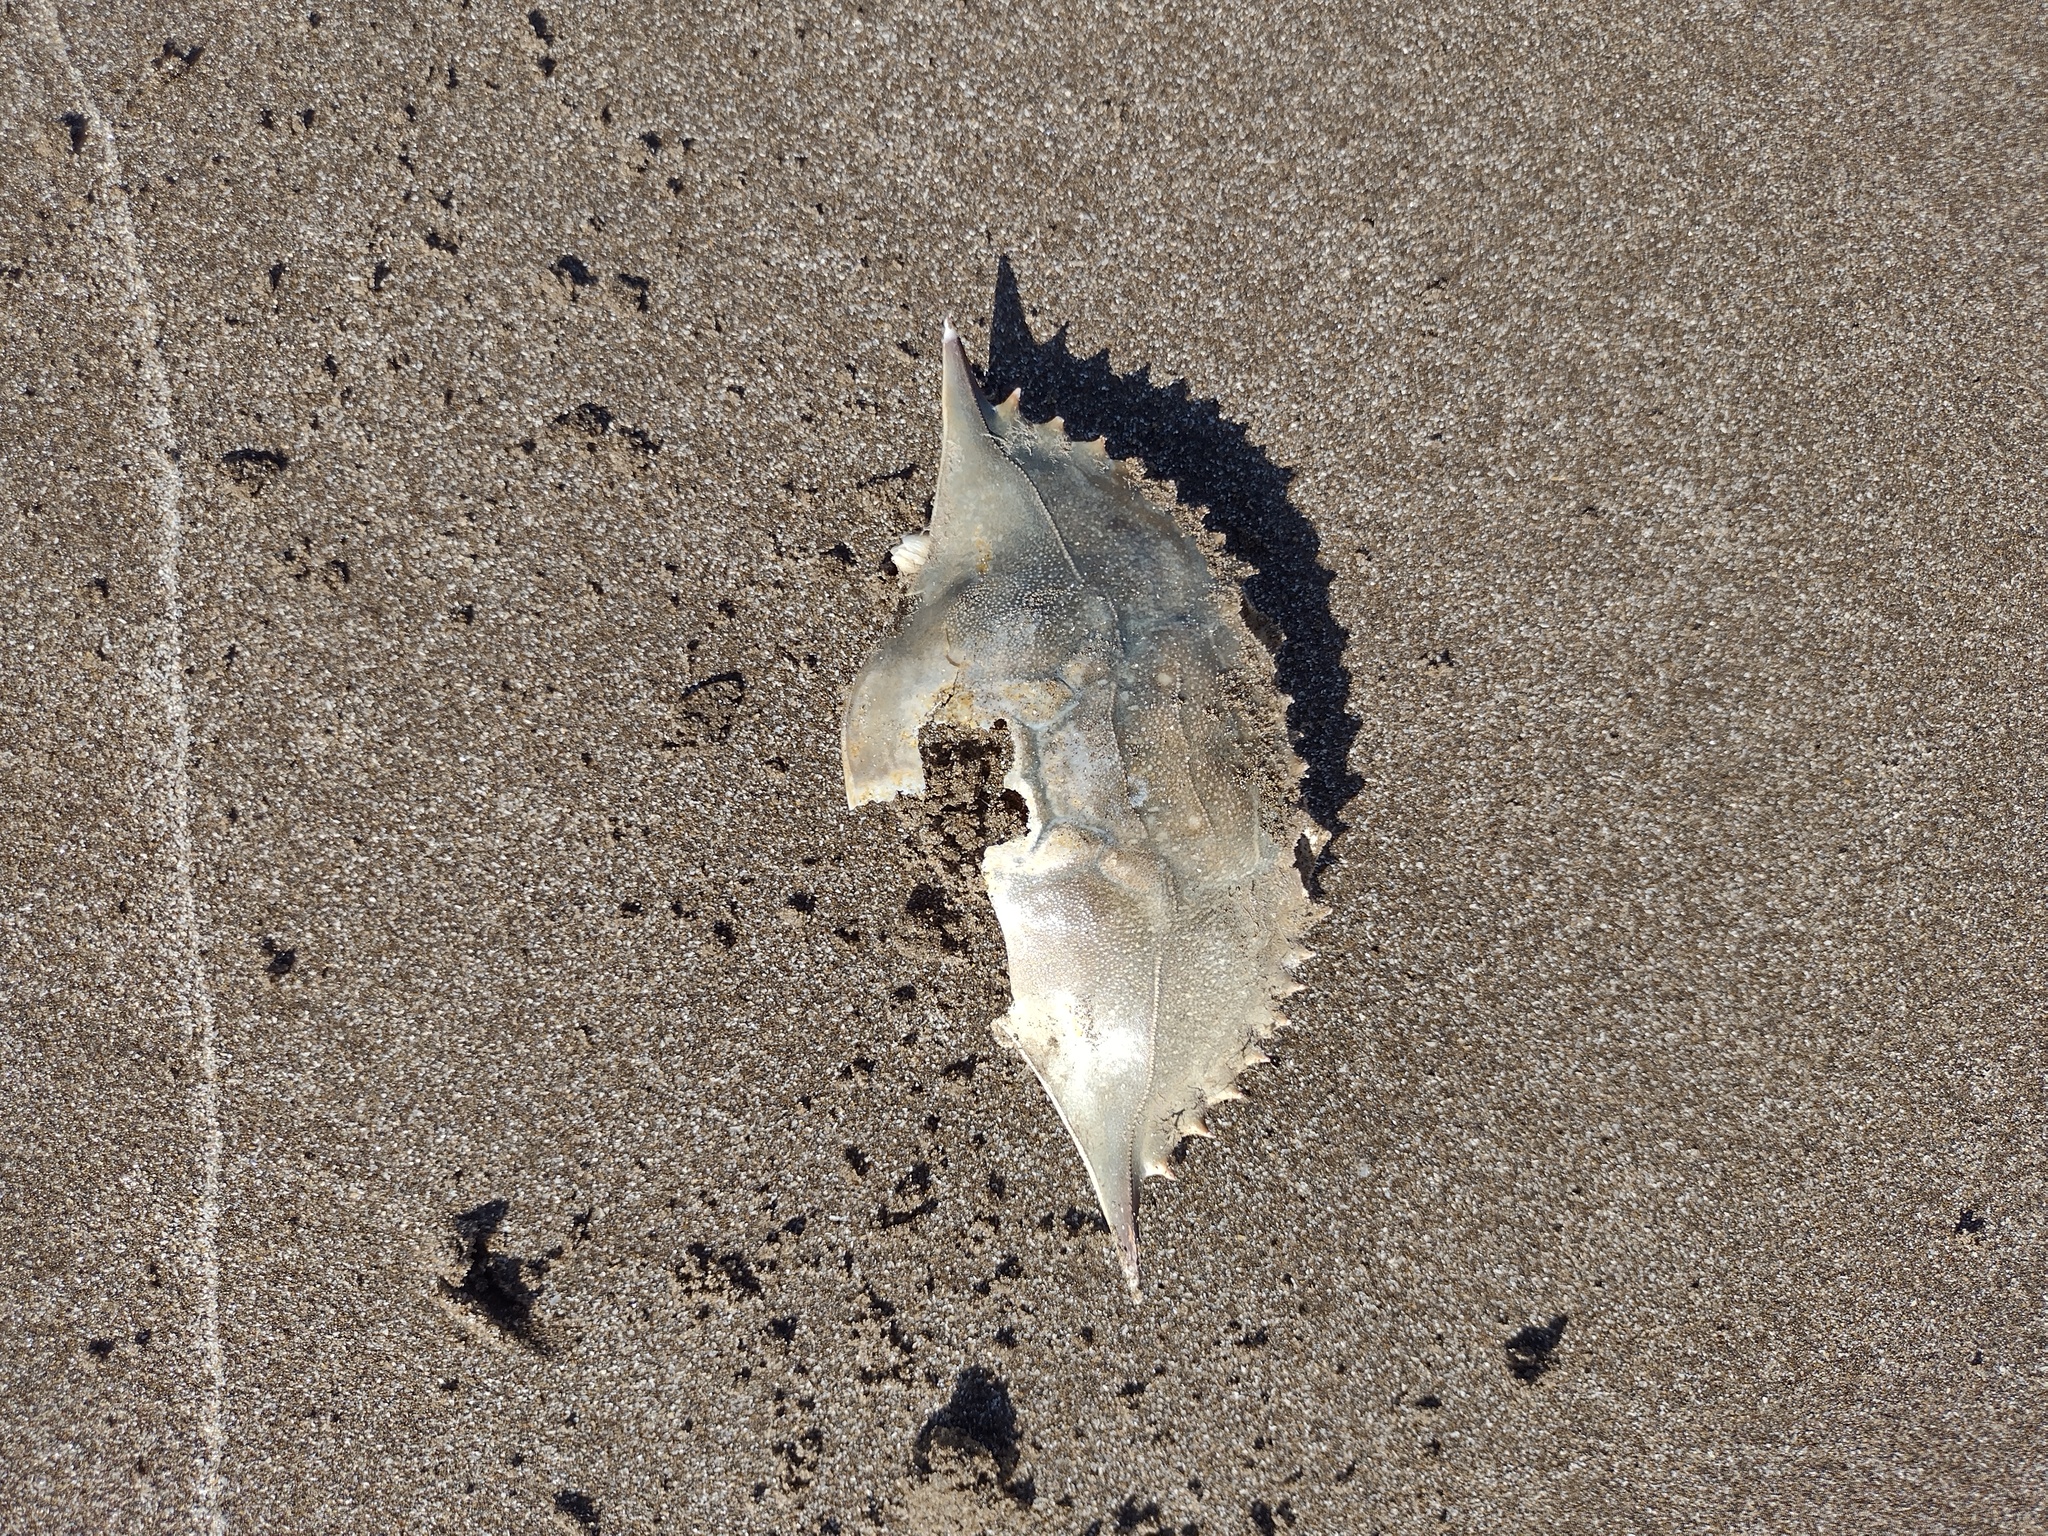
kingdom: Animalia
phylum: Arthropoda
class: Malacostraca
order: Decapoda
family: Portunidae
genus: Callinectes
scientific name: Callinectes sapidus
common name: Blue crab
